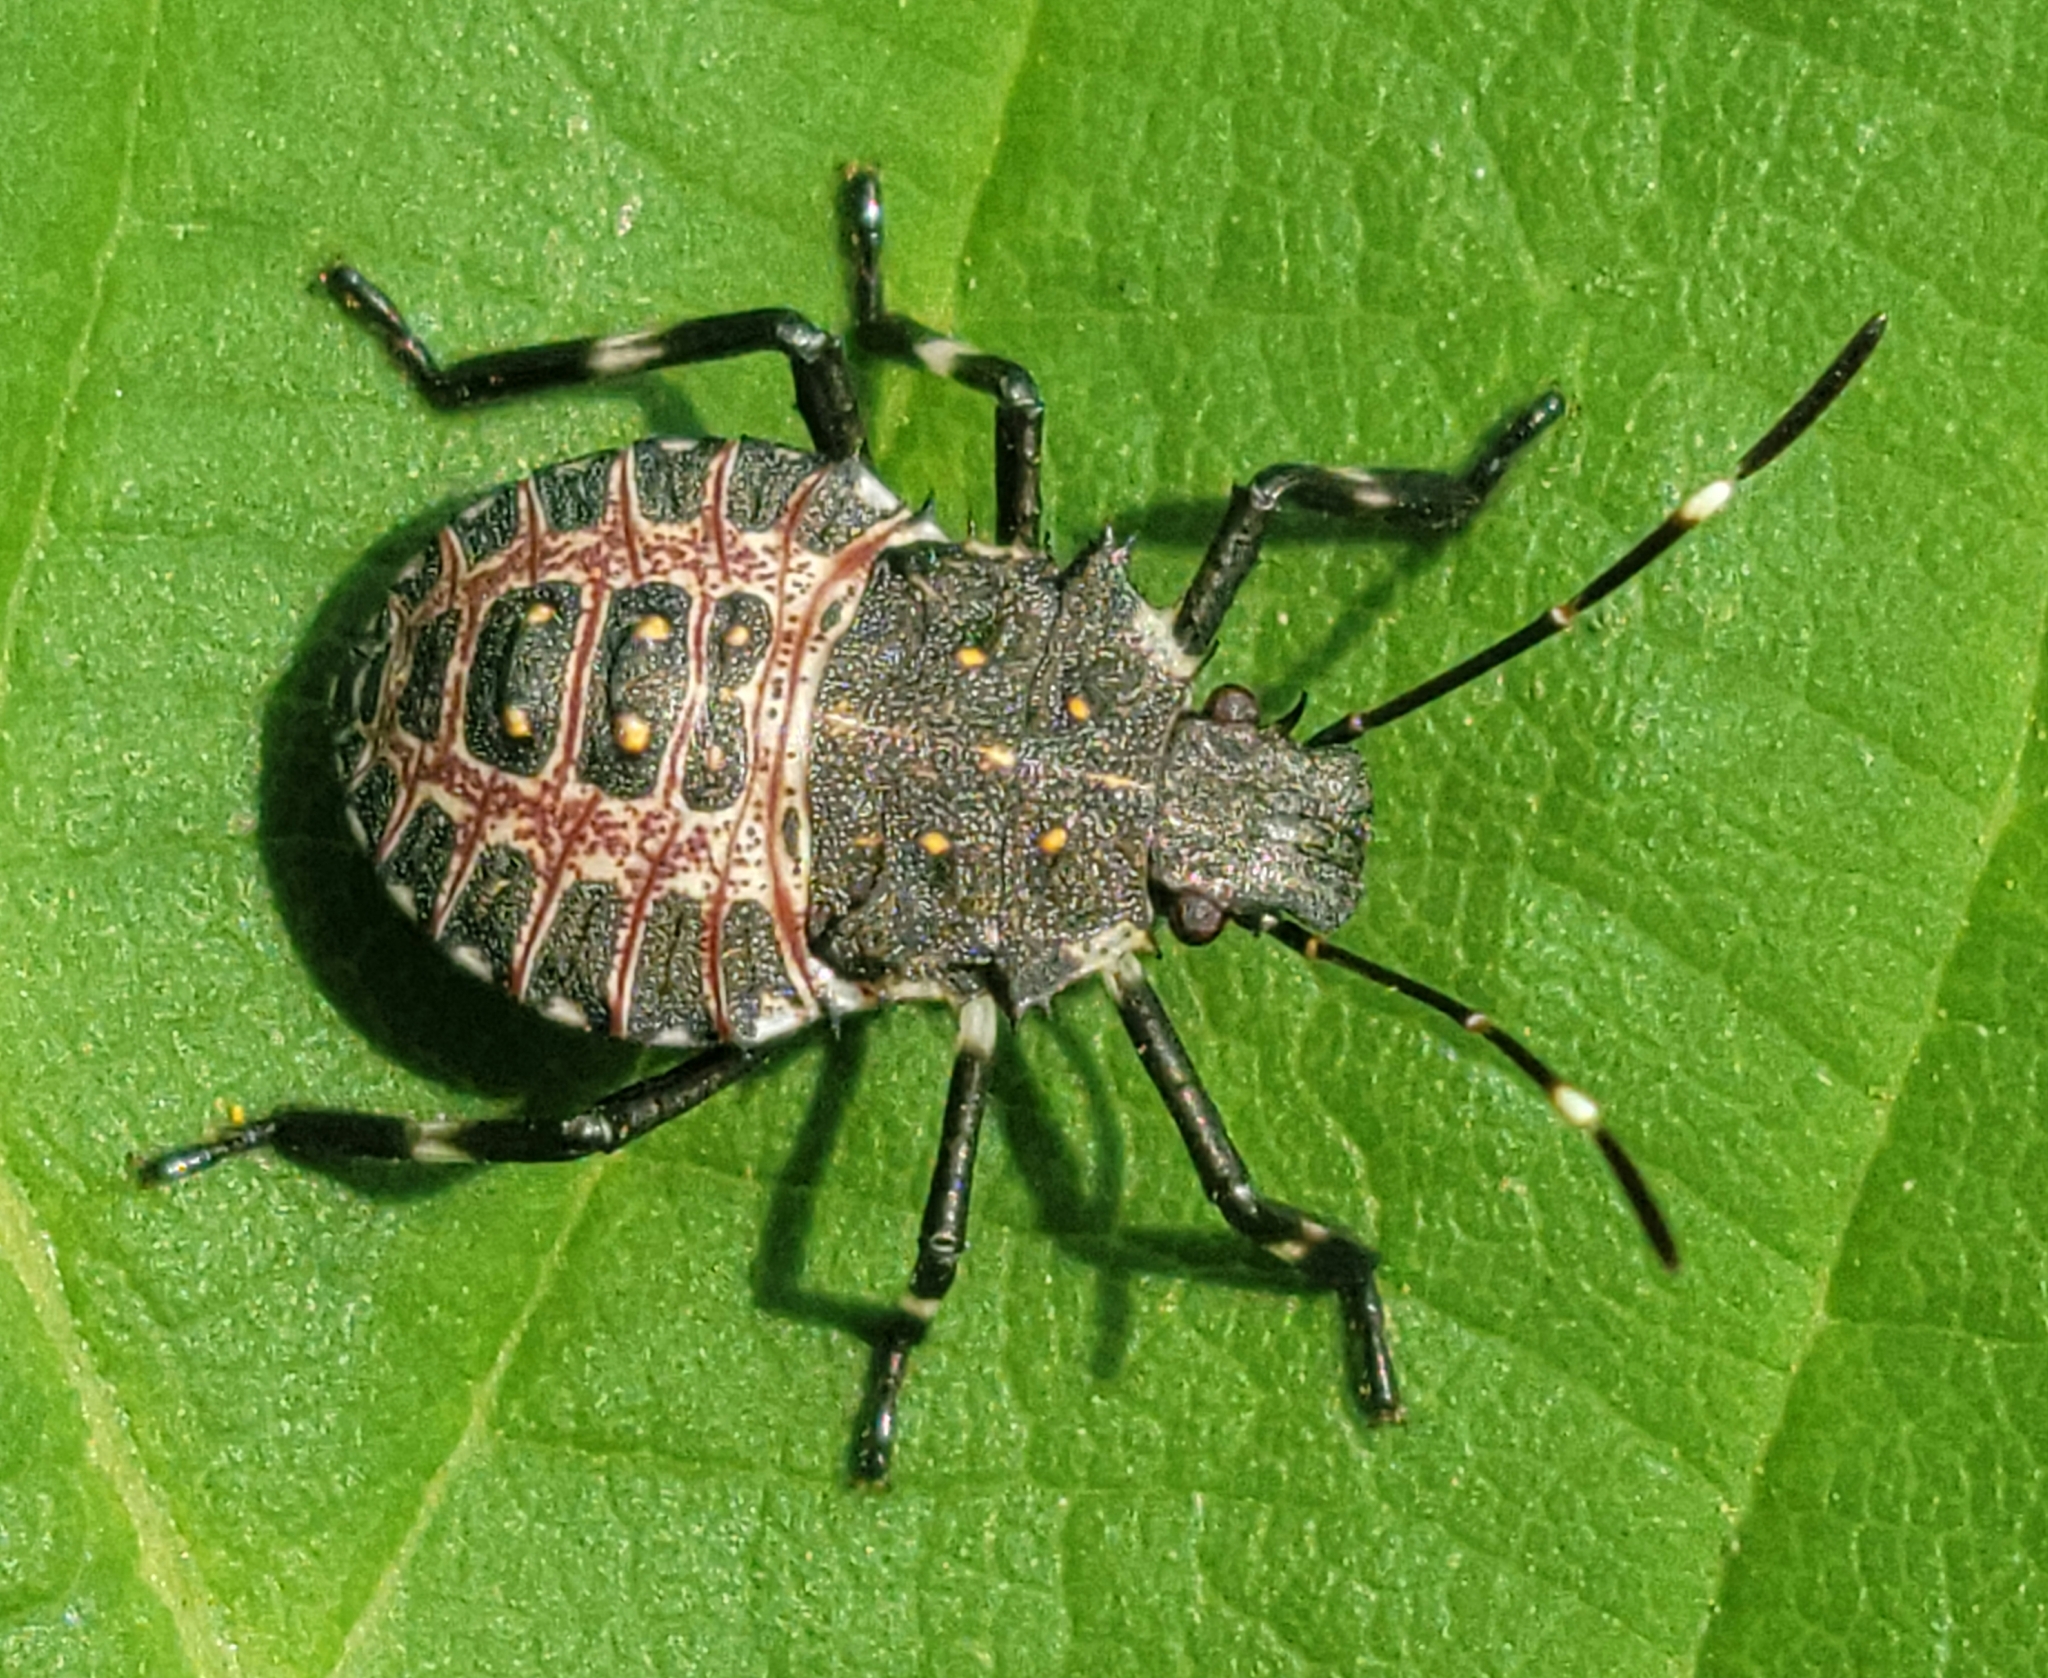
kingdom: Animalia
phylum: Arthropoda
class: Insecta
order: Hemiptera
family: Pentatomidae
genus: Halyomorpha
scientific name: Halyomorpha halys
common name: Brown marmorated stink bug
